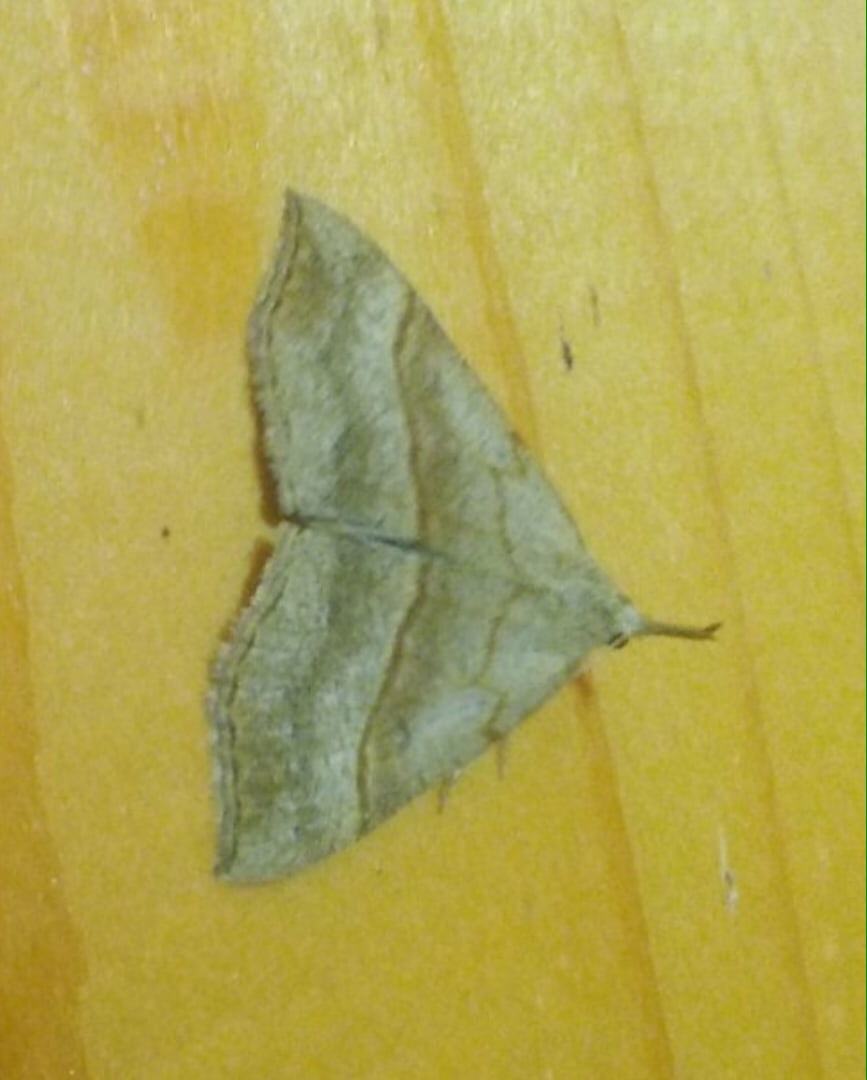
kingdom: Animalia
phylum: Arthropoda
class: Insecta
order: Lepidoptera
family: Erebidae
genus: Hypena
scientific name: Hypena proboscidalis
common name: Snout
